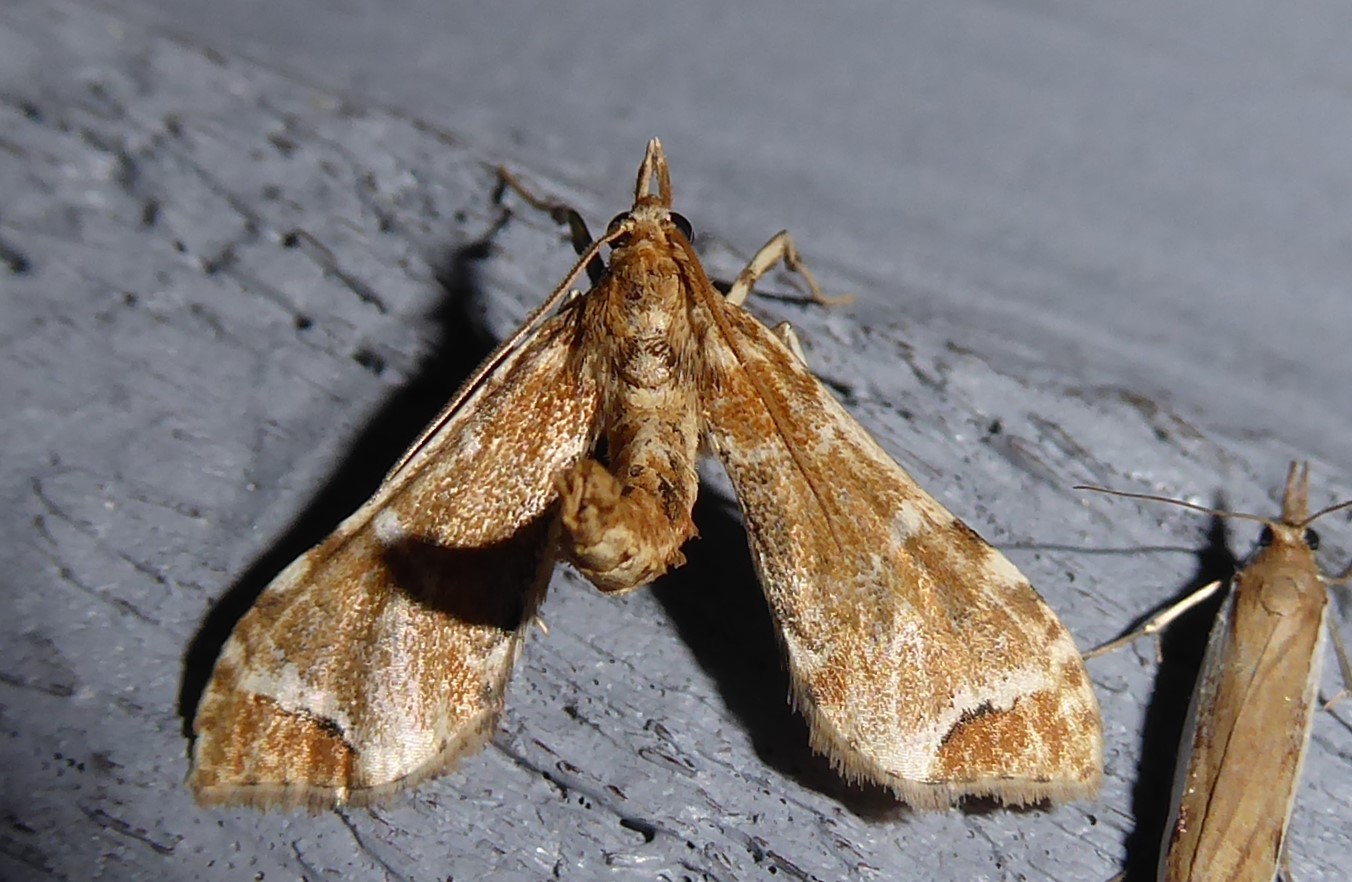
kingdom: Animalia
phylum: Arthropoda
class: Insecta
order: Lepidoptera
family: Crambidae
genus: Sceliodes
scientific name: Sceliodes cordalis
